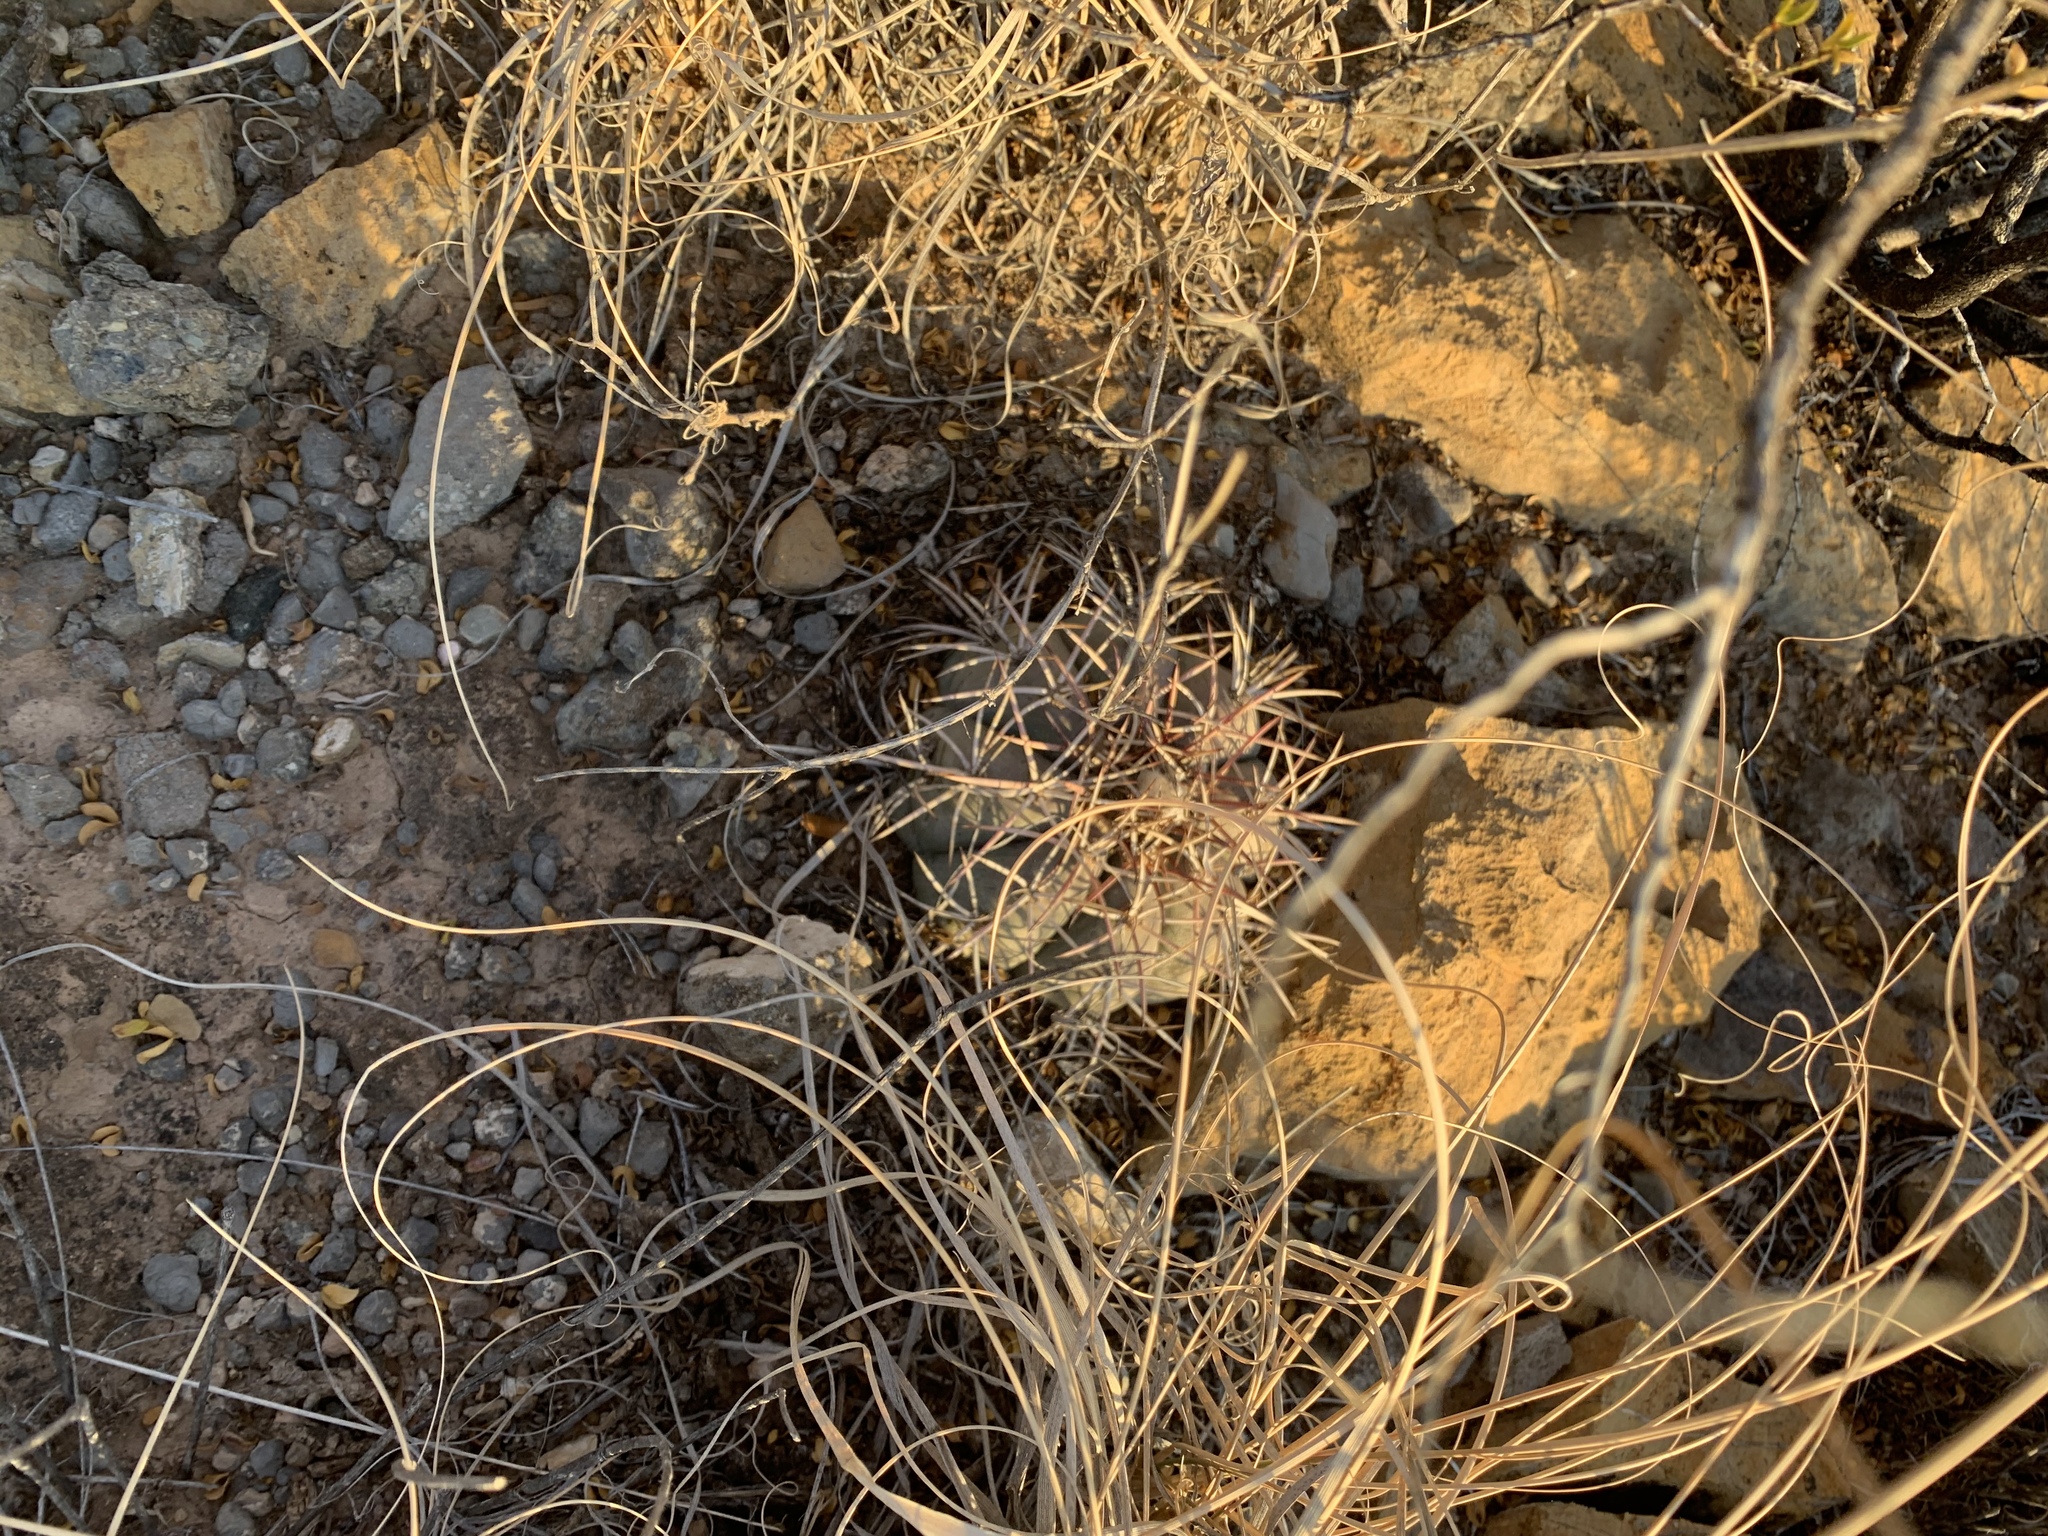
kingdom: Plantae
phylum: Tracheophyta
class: Magnoliopsida
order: Caryophyllales
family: Cactaceae
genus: Echinocactus
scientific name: Echinocactus horizonthalonius
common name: Devilshead
